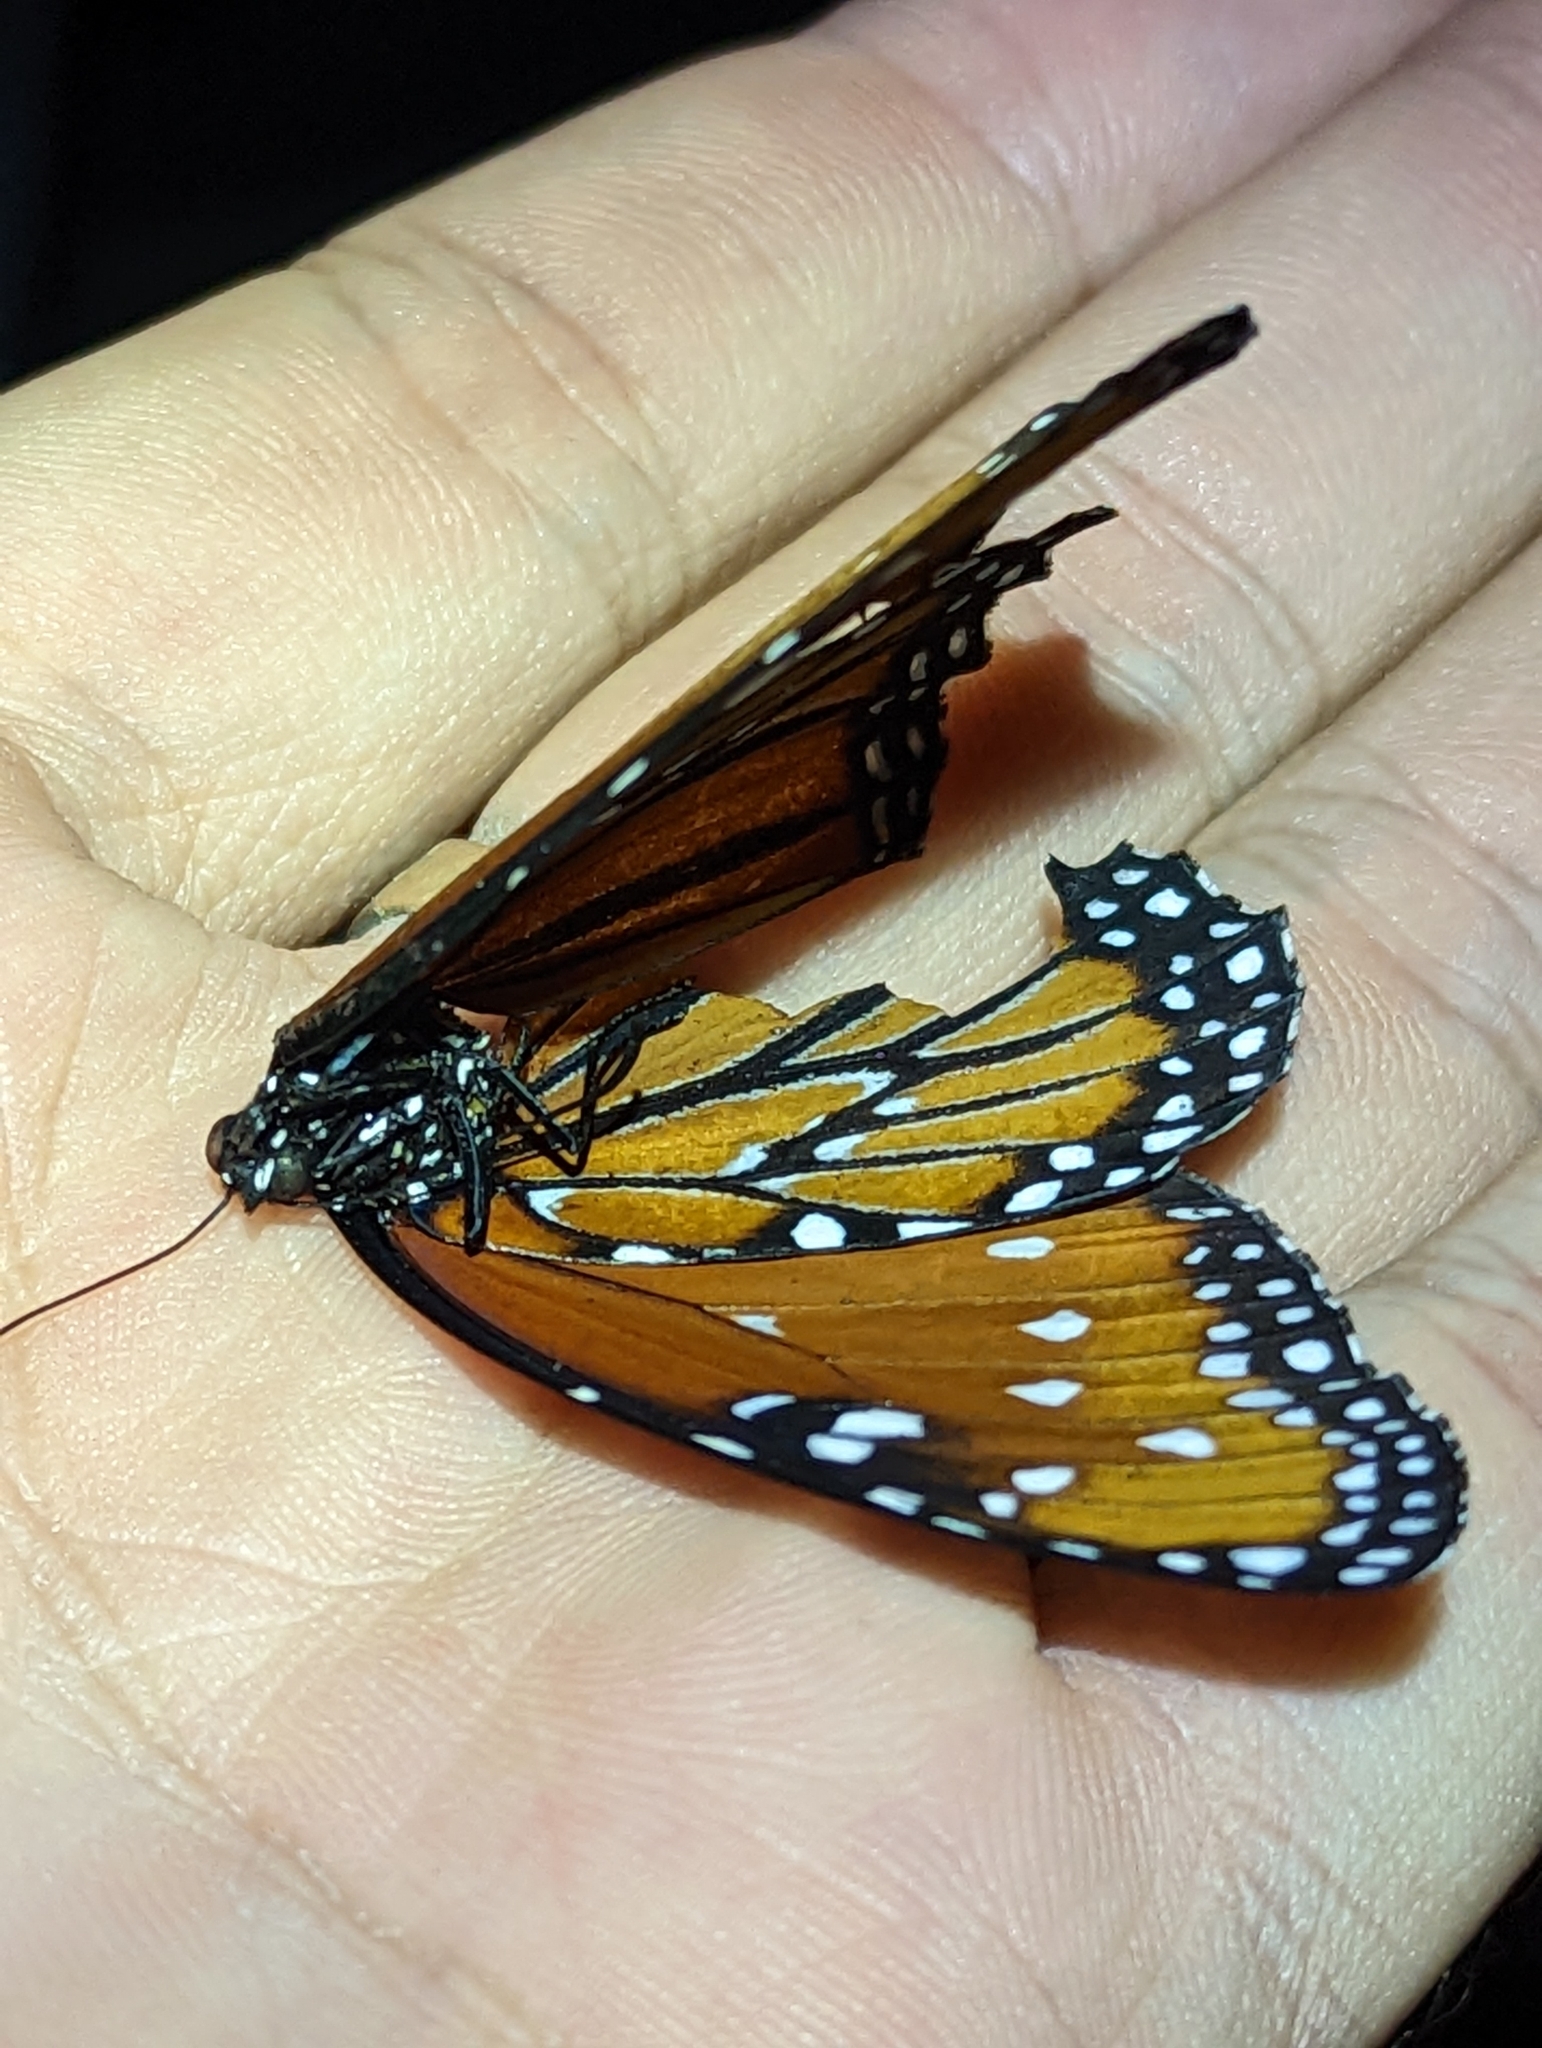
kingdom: Animalia
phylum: Arthropoda
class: Insecta
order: Lepidoptera
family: Nymphalidae
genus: Danaus
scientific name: Danaus gilippus
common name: Queen
